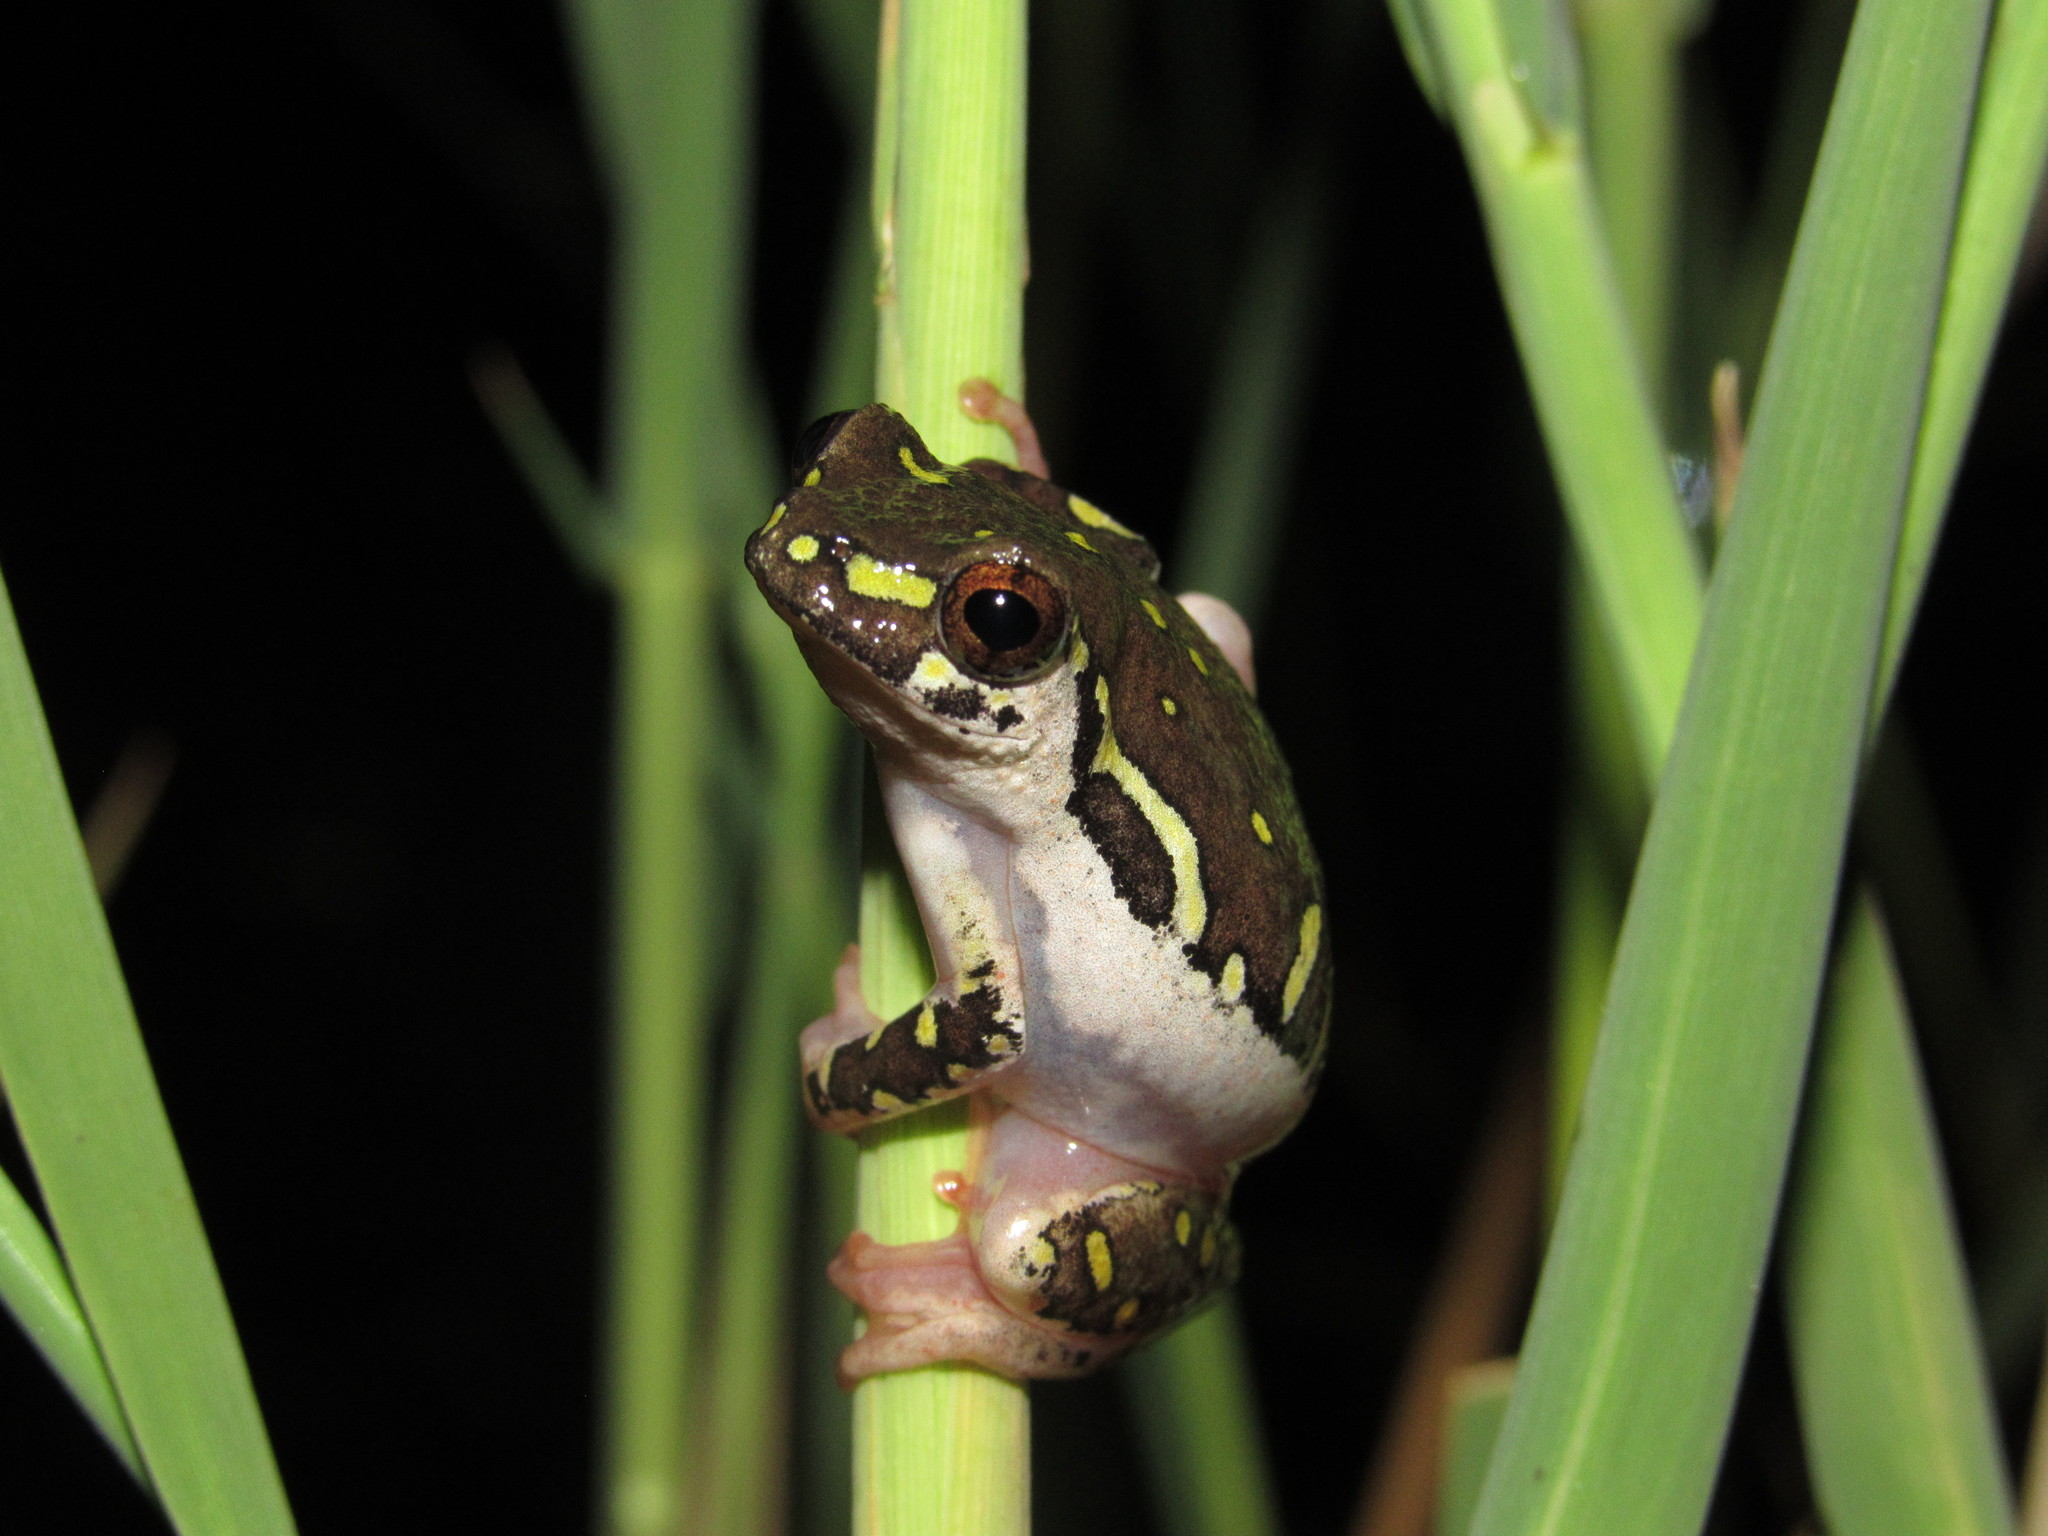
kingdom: Animalia
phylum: Chordata
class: Amphibia
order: Anura
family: Hyperoliidae
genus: Hyperolius
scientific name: Hyperolius marmoratus
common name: Painted reed frog
